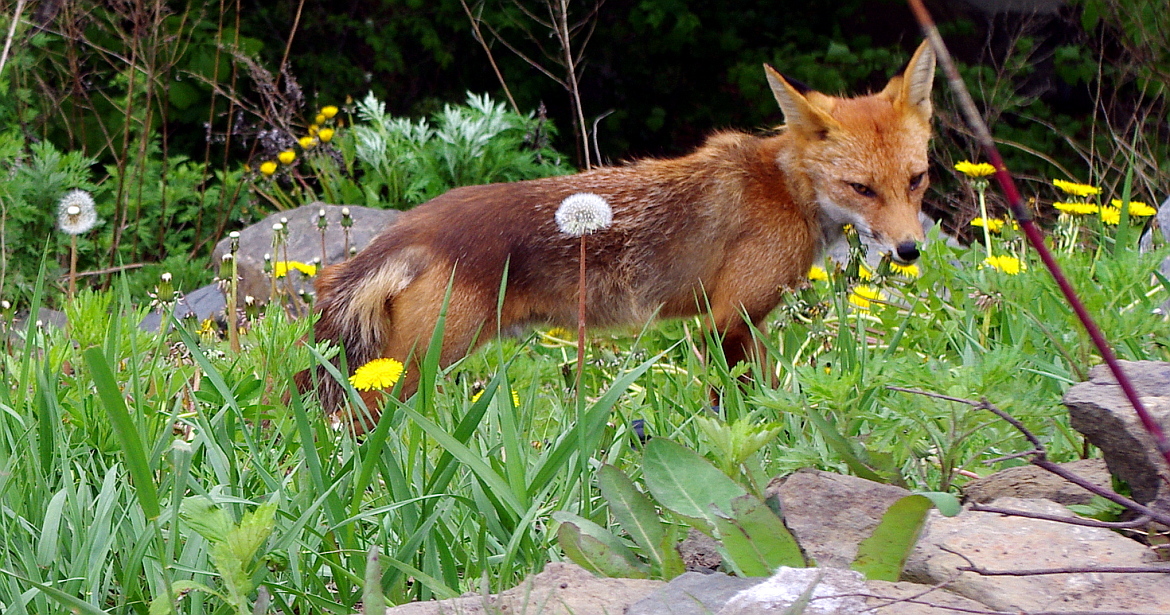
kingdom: Plantae
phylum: Tracheophyta
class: Magnoliopsida
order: Asterales
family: Asteraceae
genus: Taraxacum
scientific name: Taraxacum officinale
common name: Common dandelion
